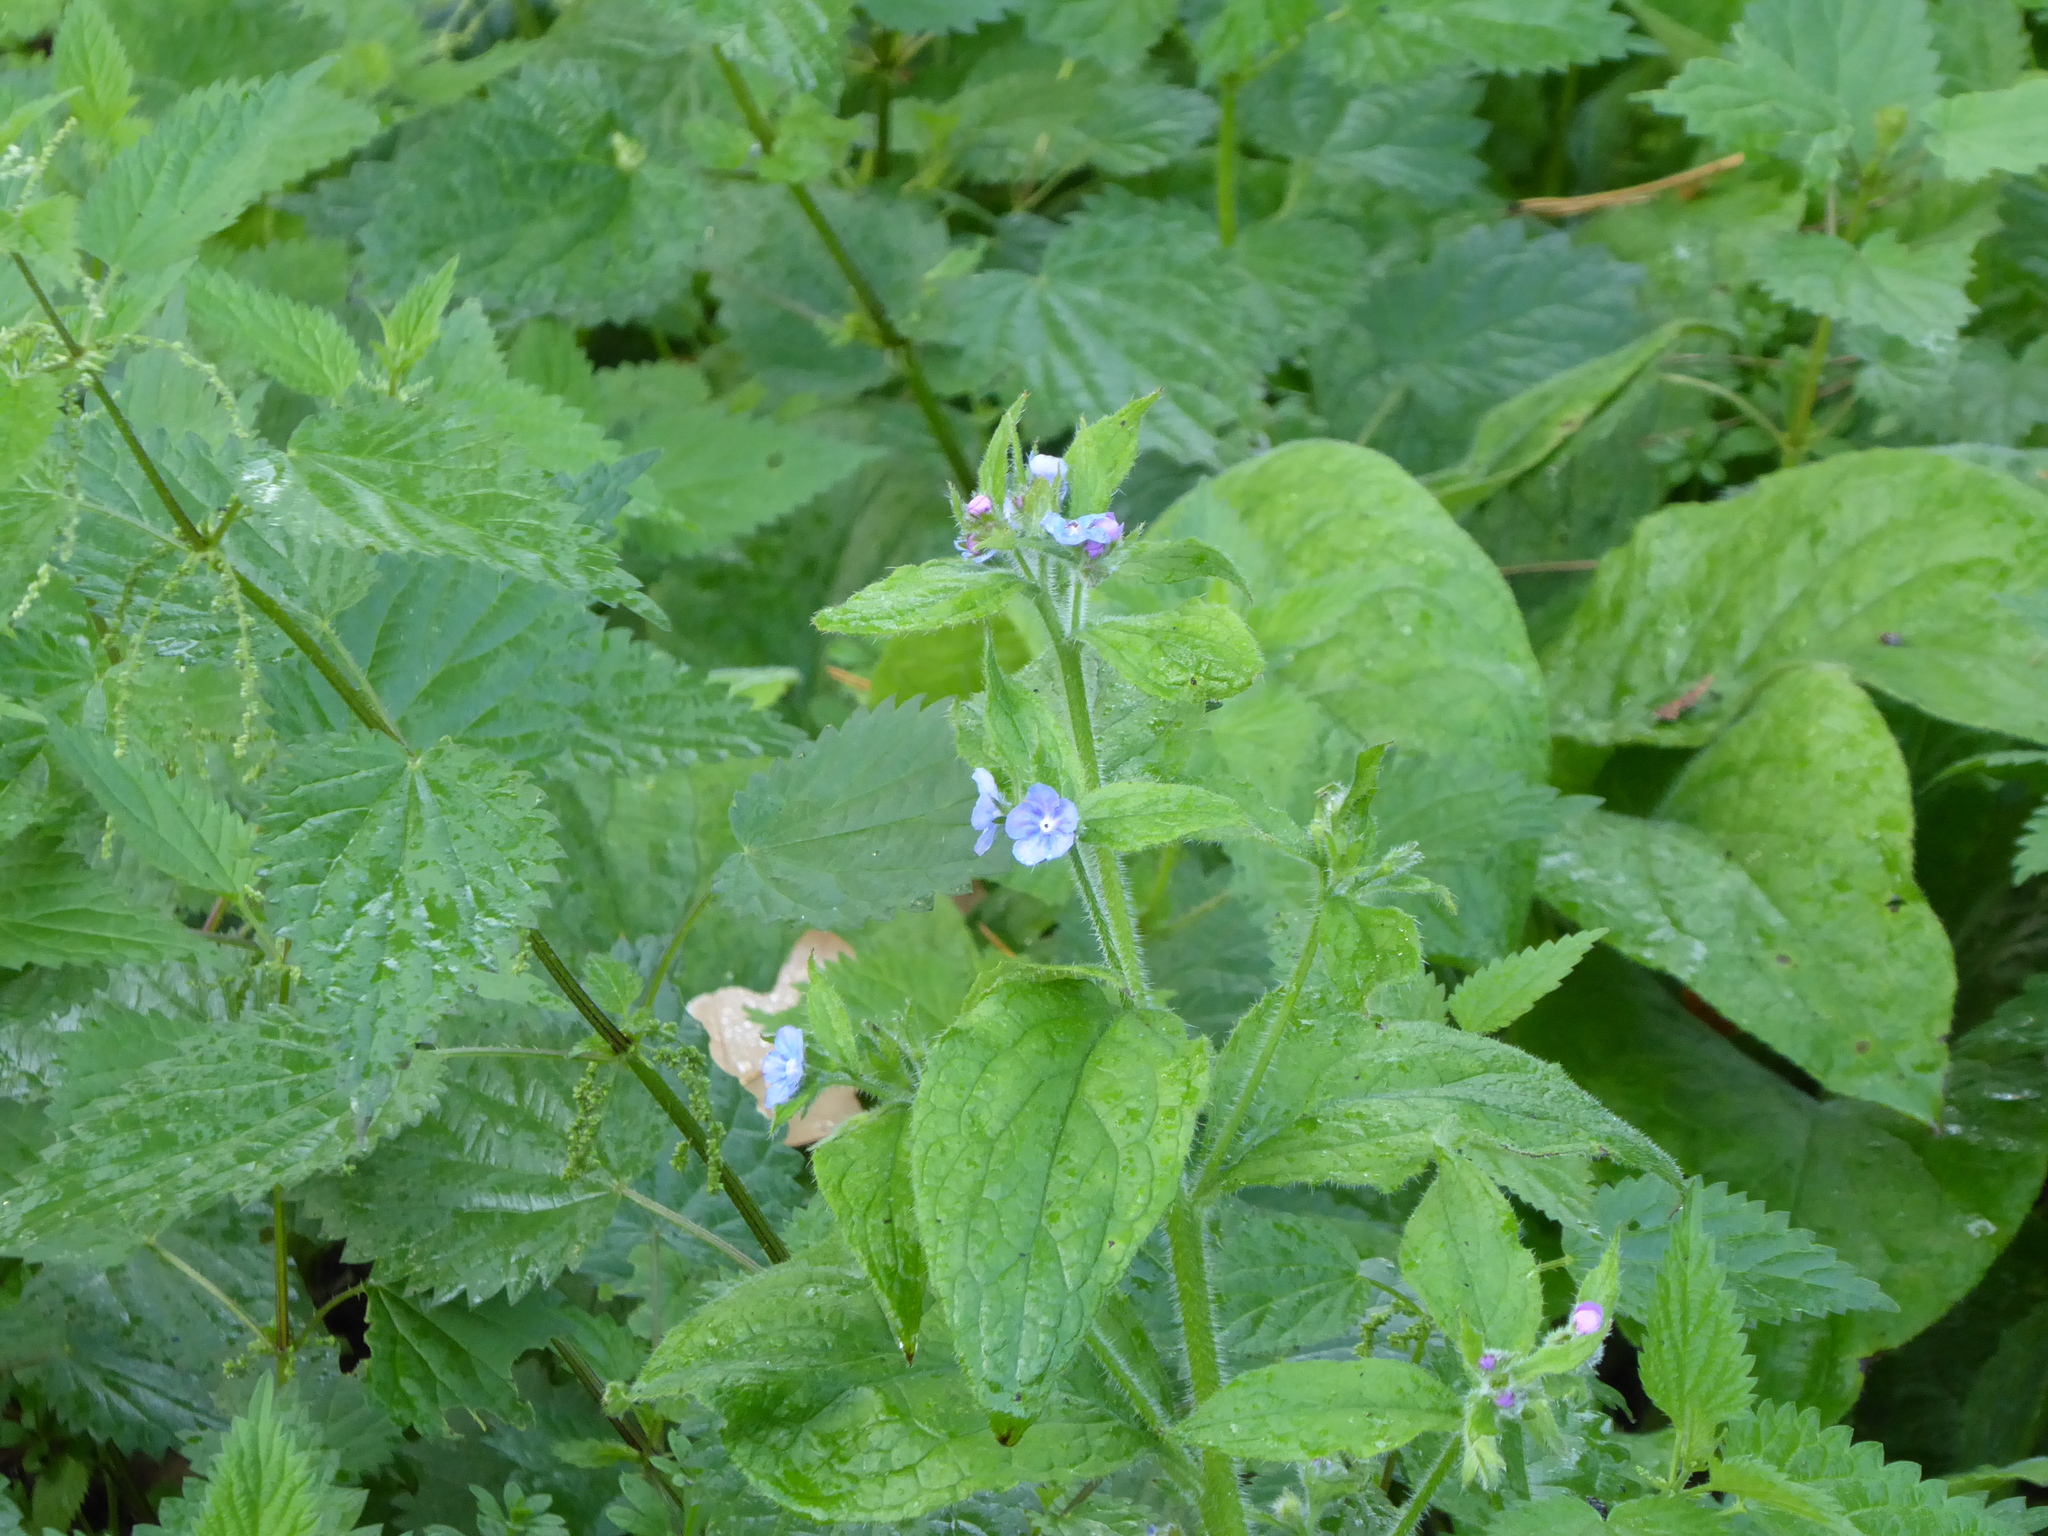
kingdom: Plantae
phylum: Tracheophyta
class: Magnoliopsida
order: Boraginales
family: Boraginaceae
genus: Pentaglottis
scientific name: Pentaglottis sempervirens
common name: Green alkanet
